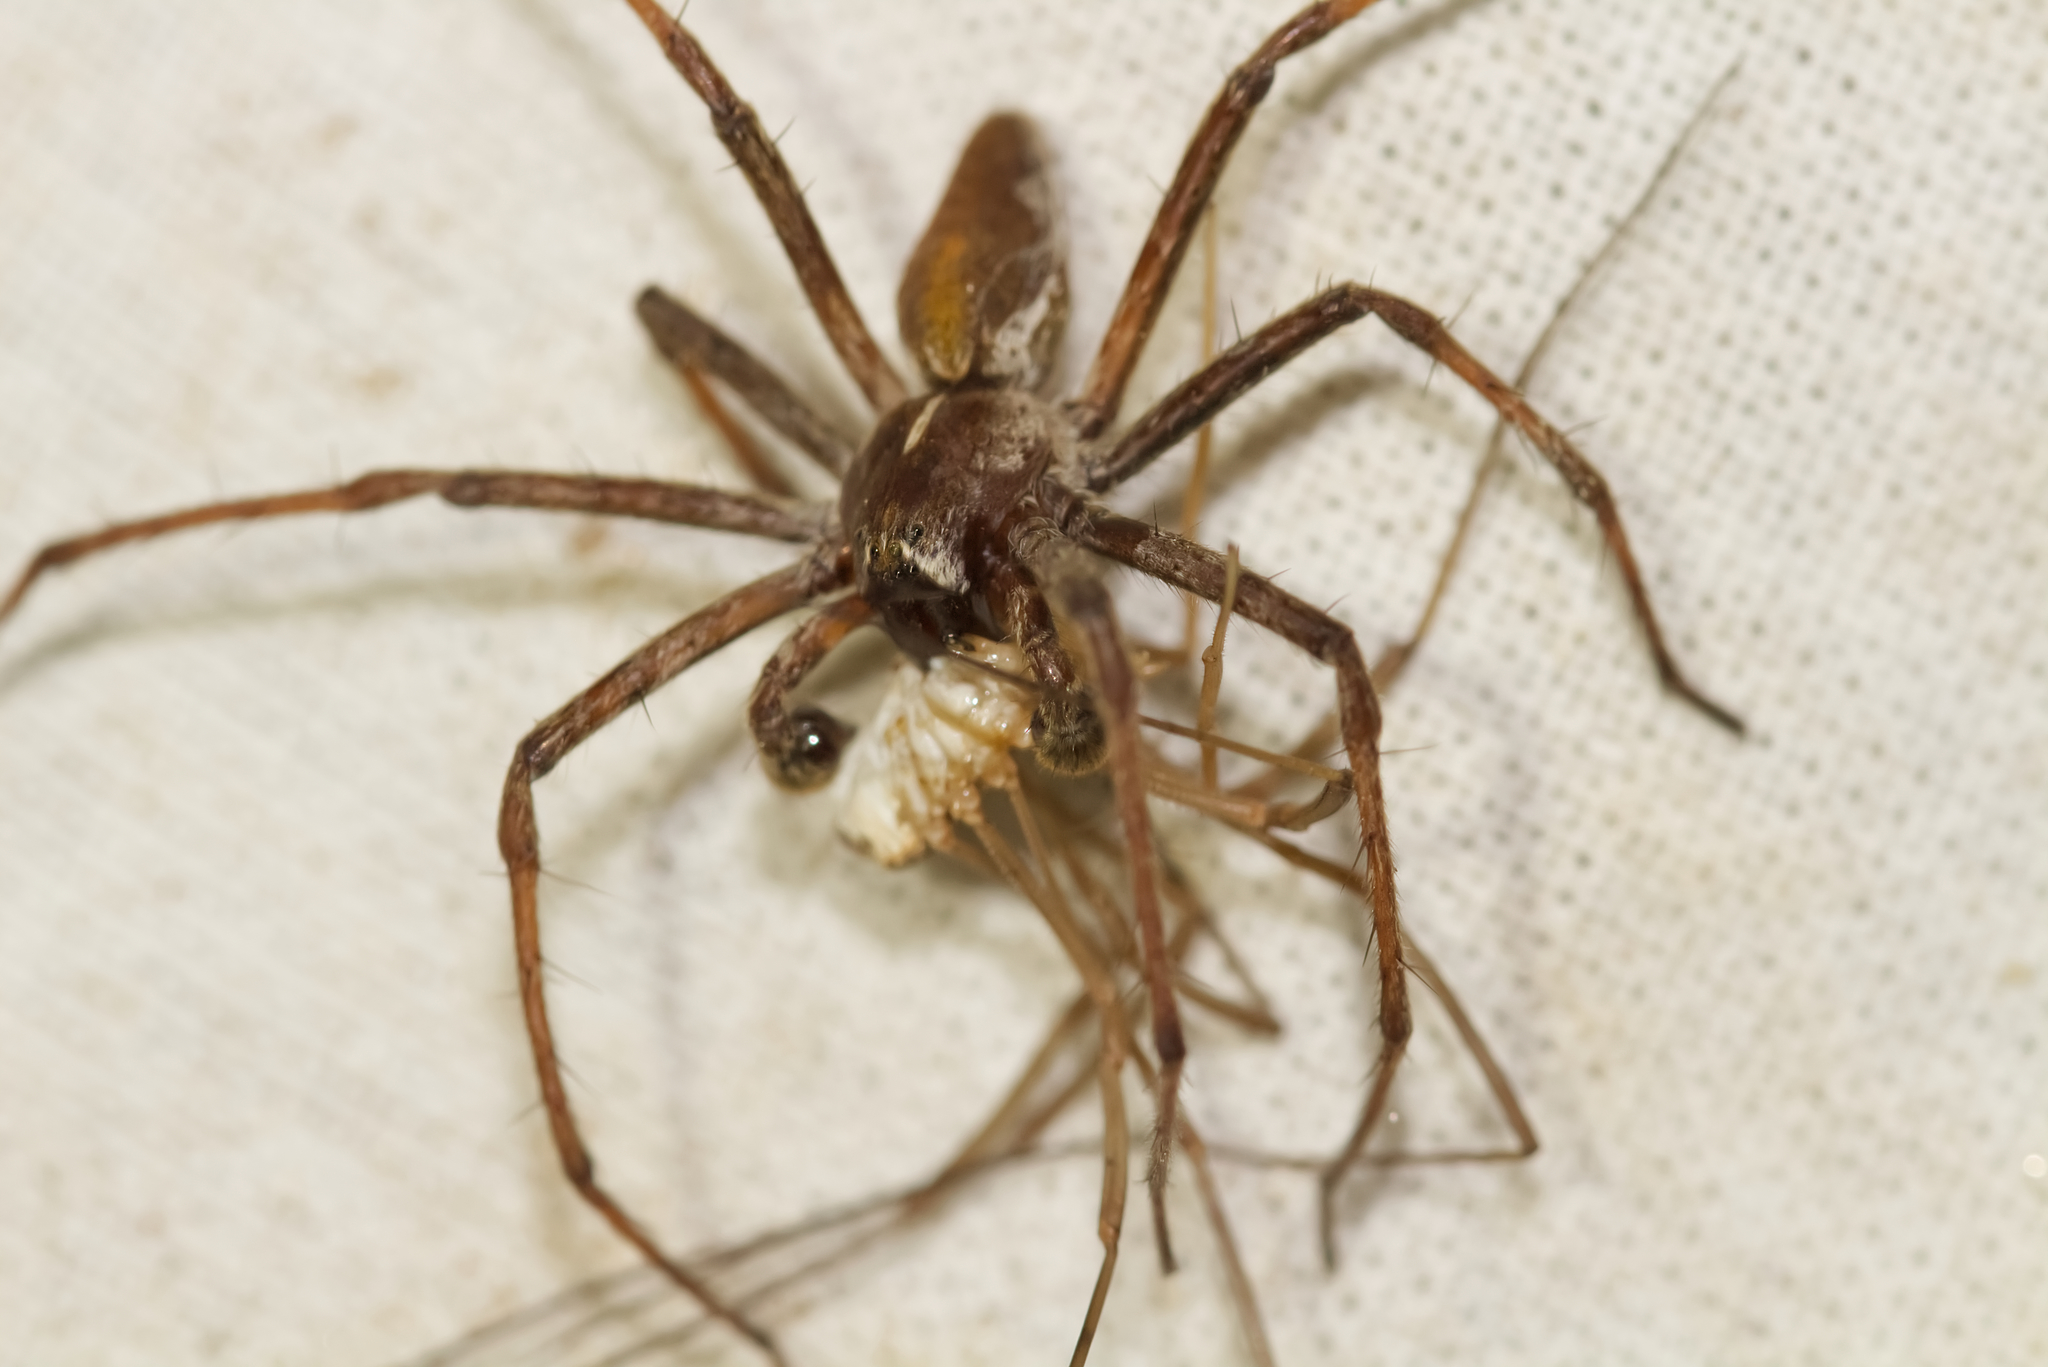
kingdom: Animalia
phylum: Arthropoda
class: Arachnida
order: Araneae
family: Pisauridae
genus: Pisaura
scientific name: Pisaura mirabilis
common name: Tent spider
